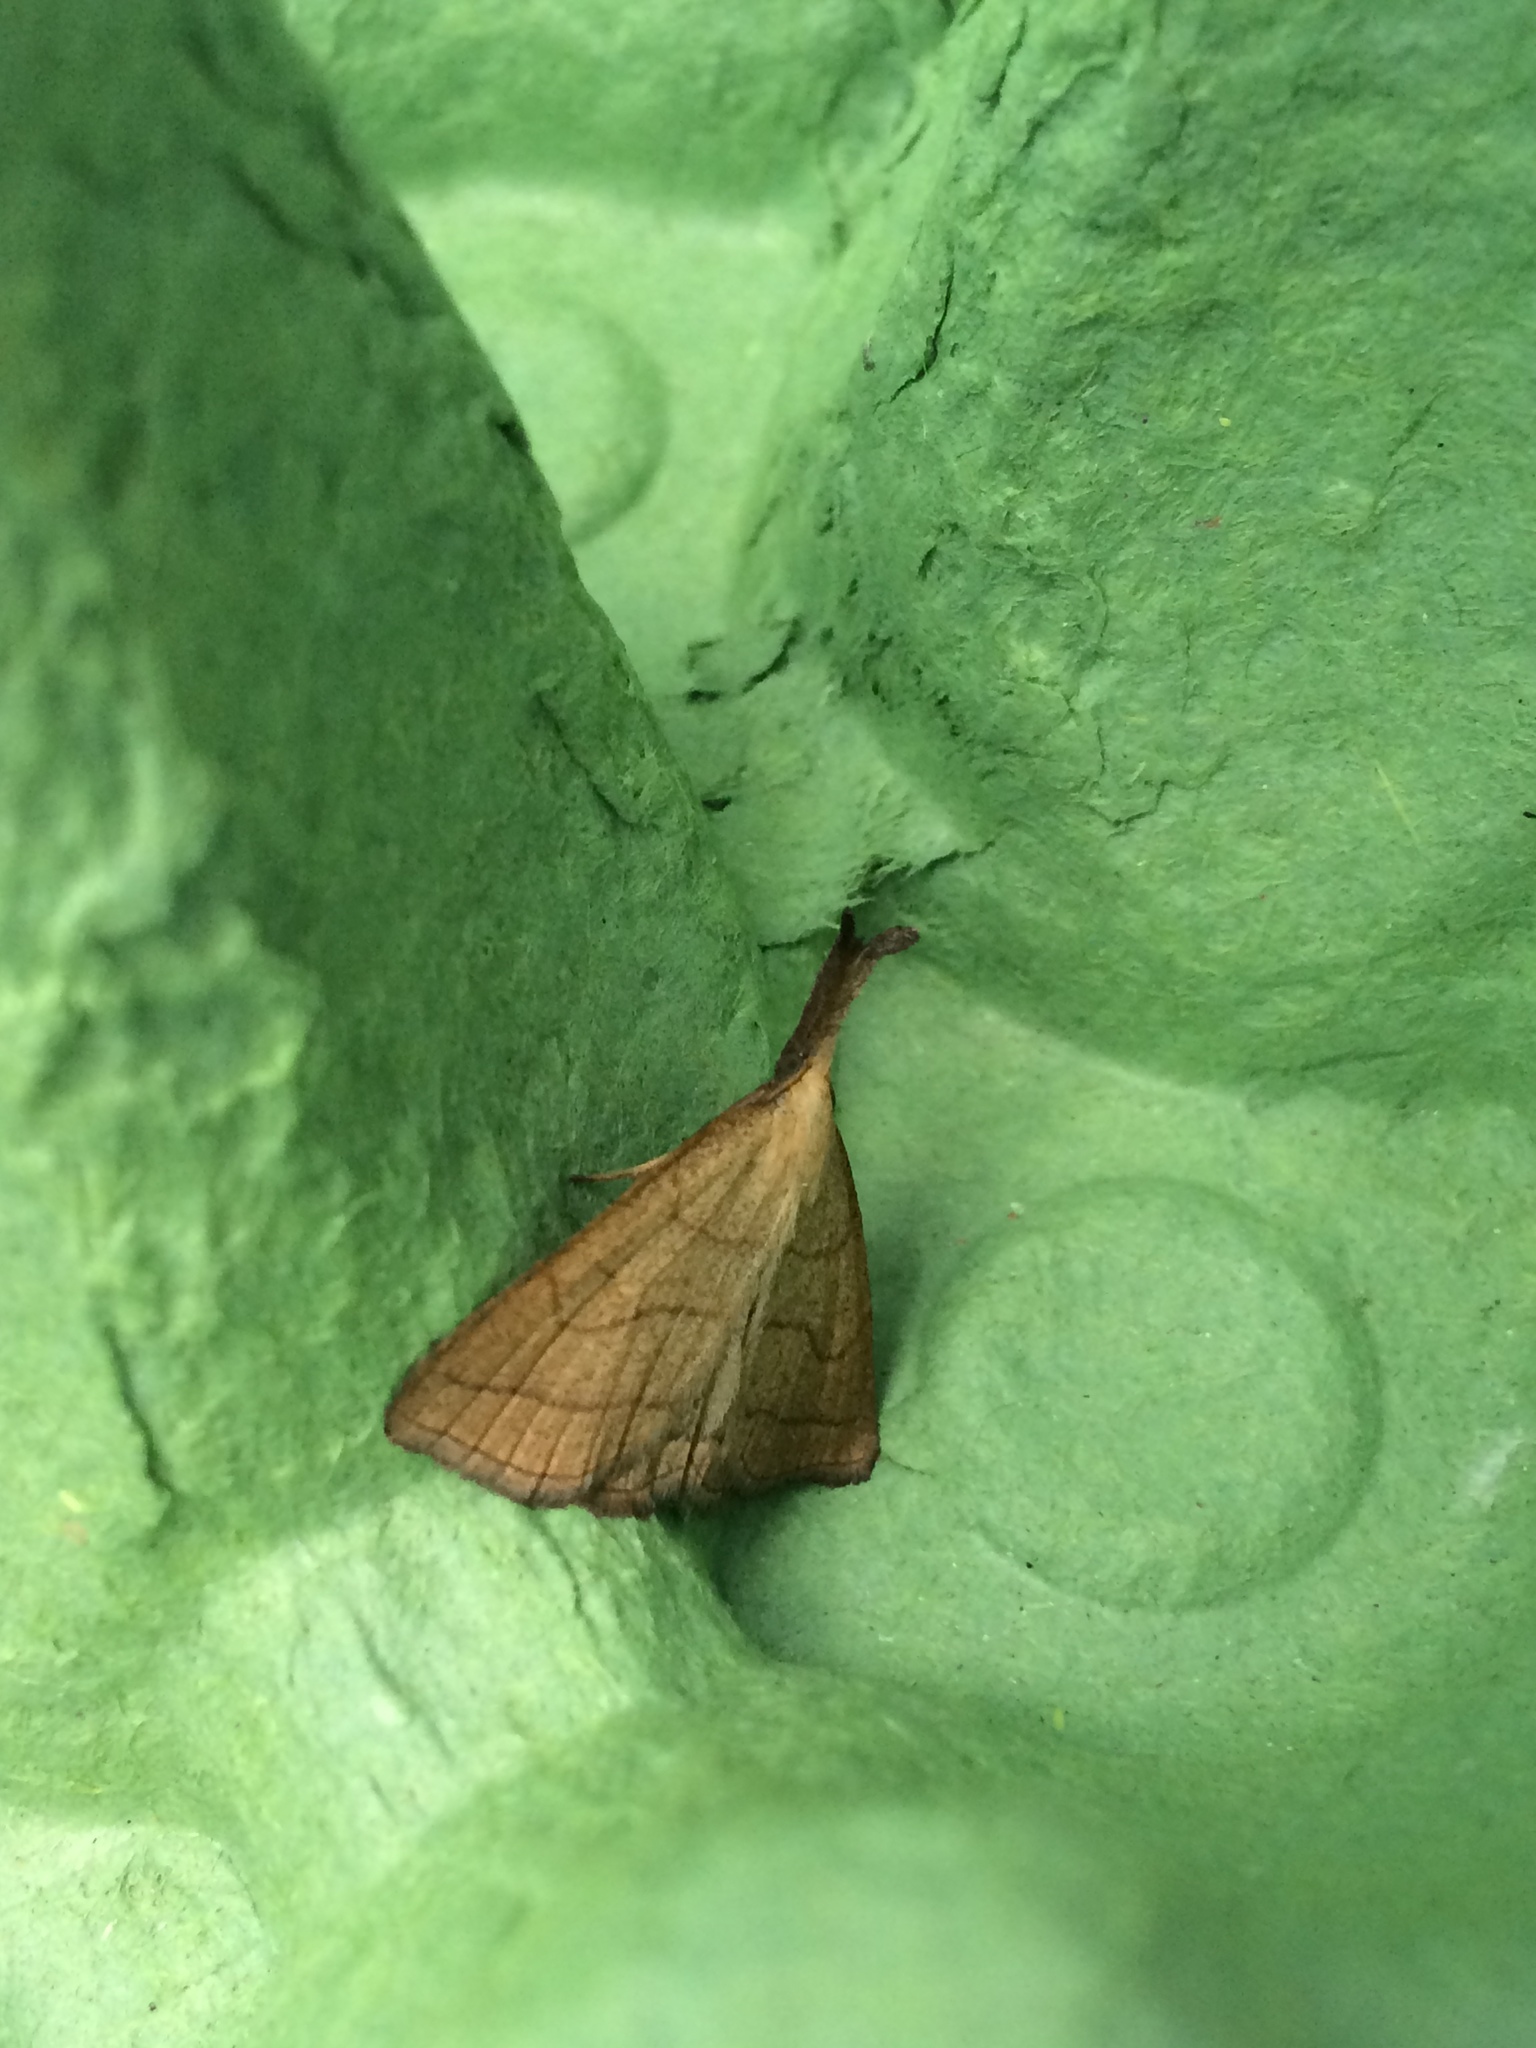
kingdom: Animalia
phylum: Arthropoda
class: Insecta
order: Lepidoptera
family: Erebidae
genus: Polypogon
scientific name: Polypogon gryphalis
